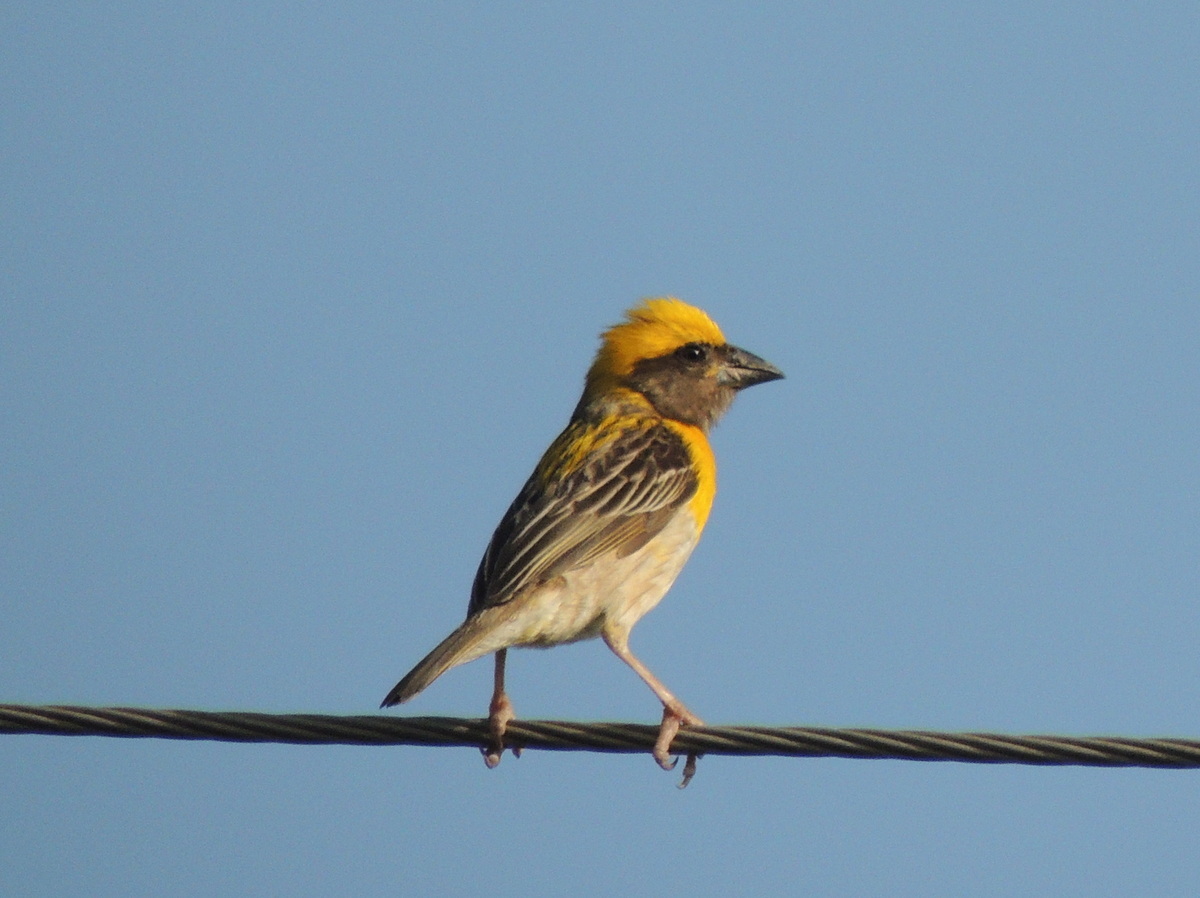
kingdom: Animalia
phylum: Chordata
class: Aves
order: Passeriformes
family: Ploceidae
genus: Ploceus
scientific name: Ploceus philippinus
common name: Baya weaver
